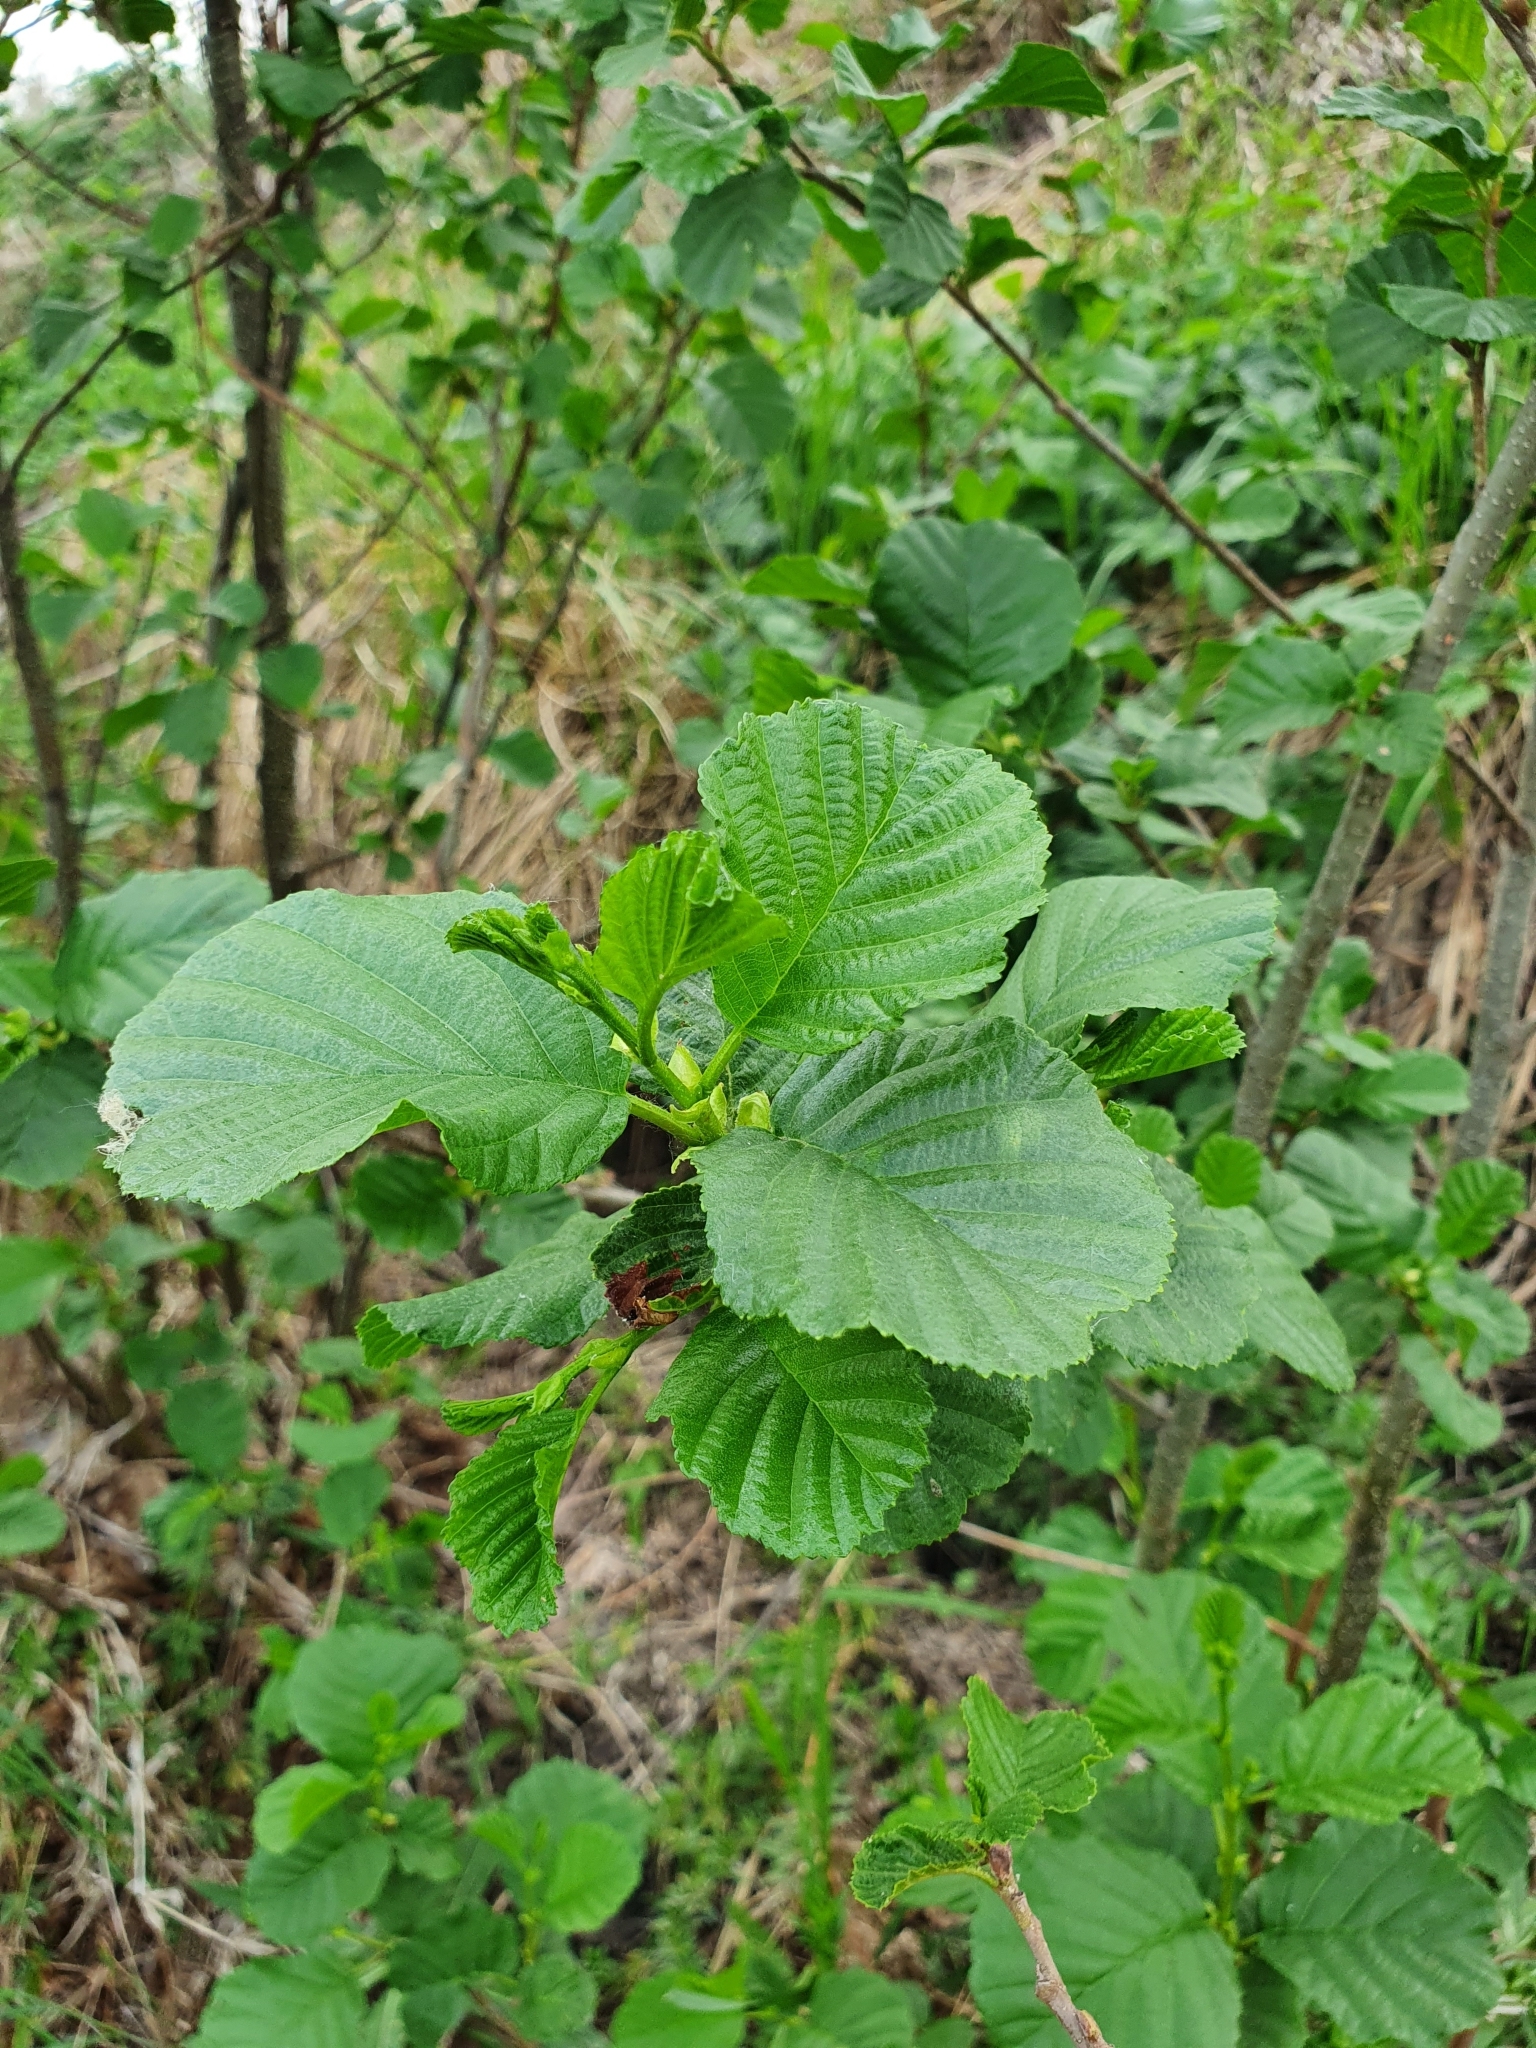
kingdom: Plantae
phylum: Tracheophyta
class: Magnoliopsida
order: Fagales
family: Betulaceae
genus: Alnus
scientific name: Alnus glutinosa
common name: Black alder
